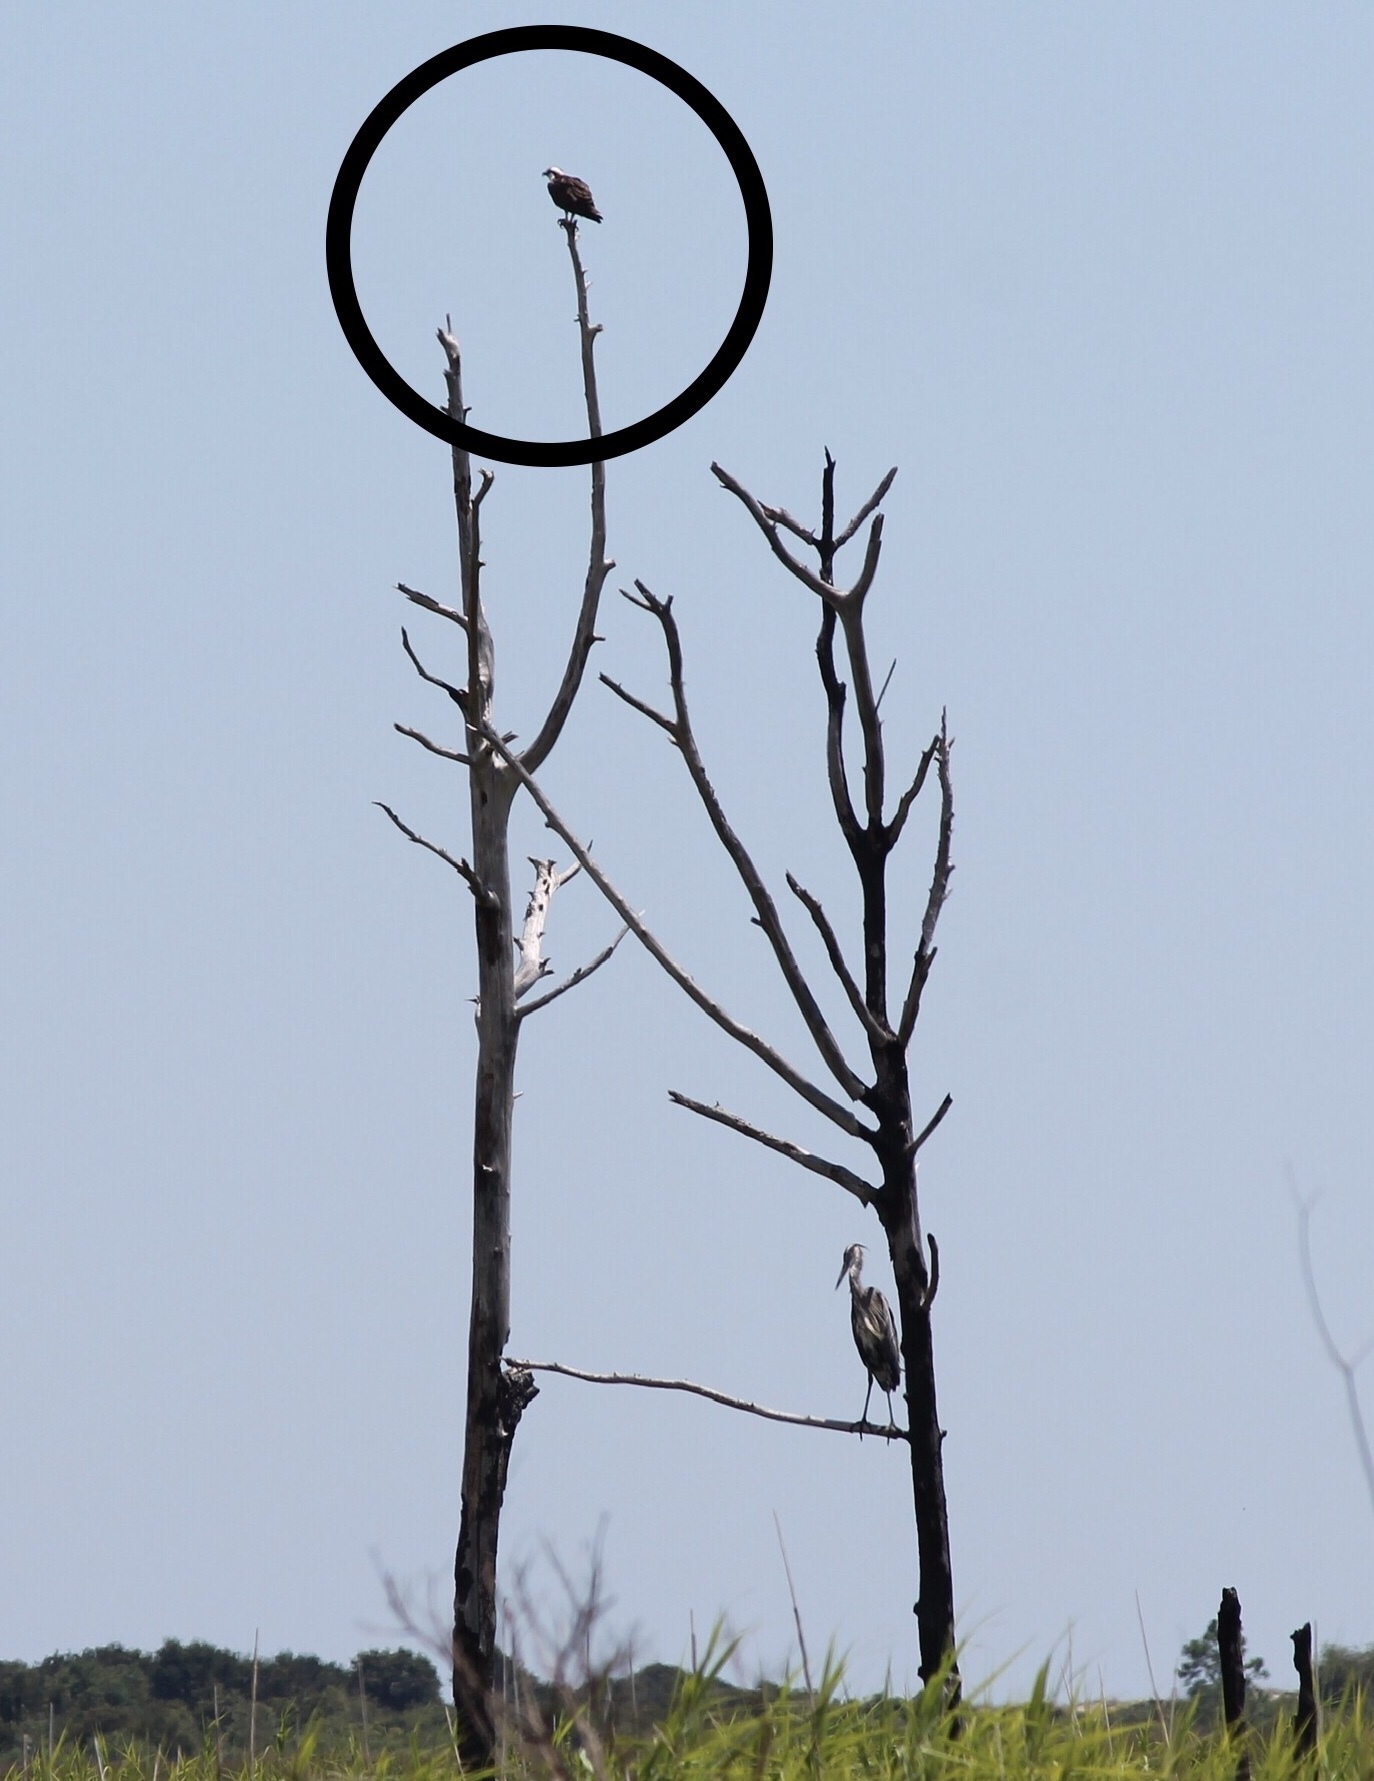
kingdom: Animalia
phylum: Chordata
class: Aves
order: Accipitriformes
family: Pandionidae
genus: Pandion
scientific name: Pandion haliaetus
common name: Osprey
